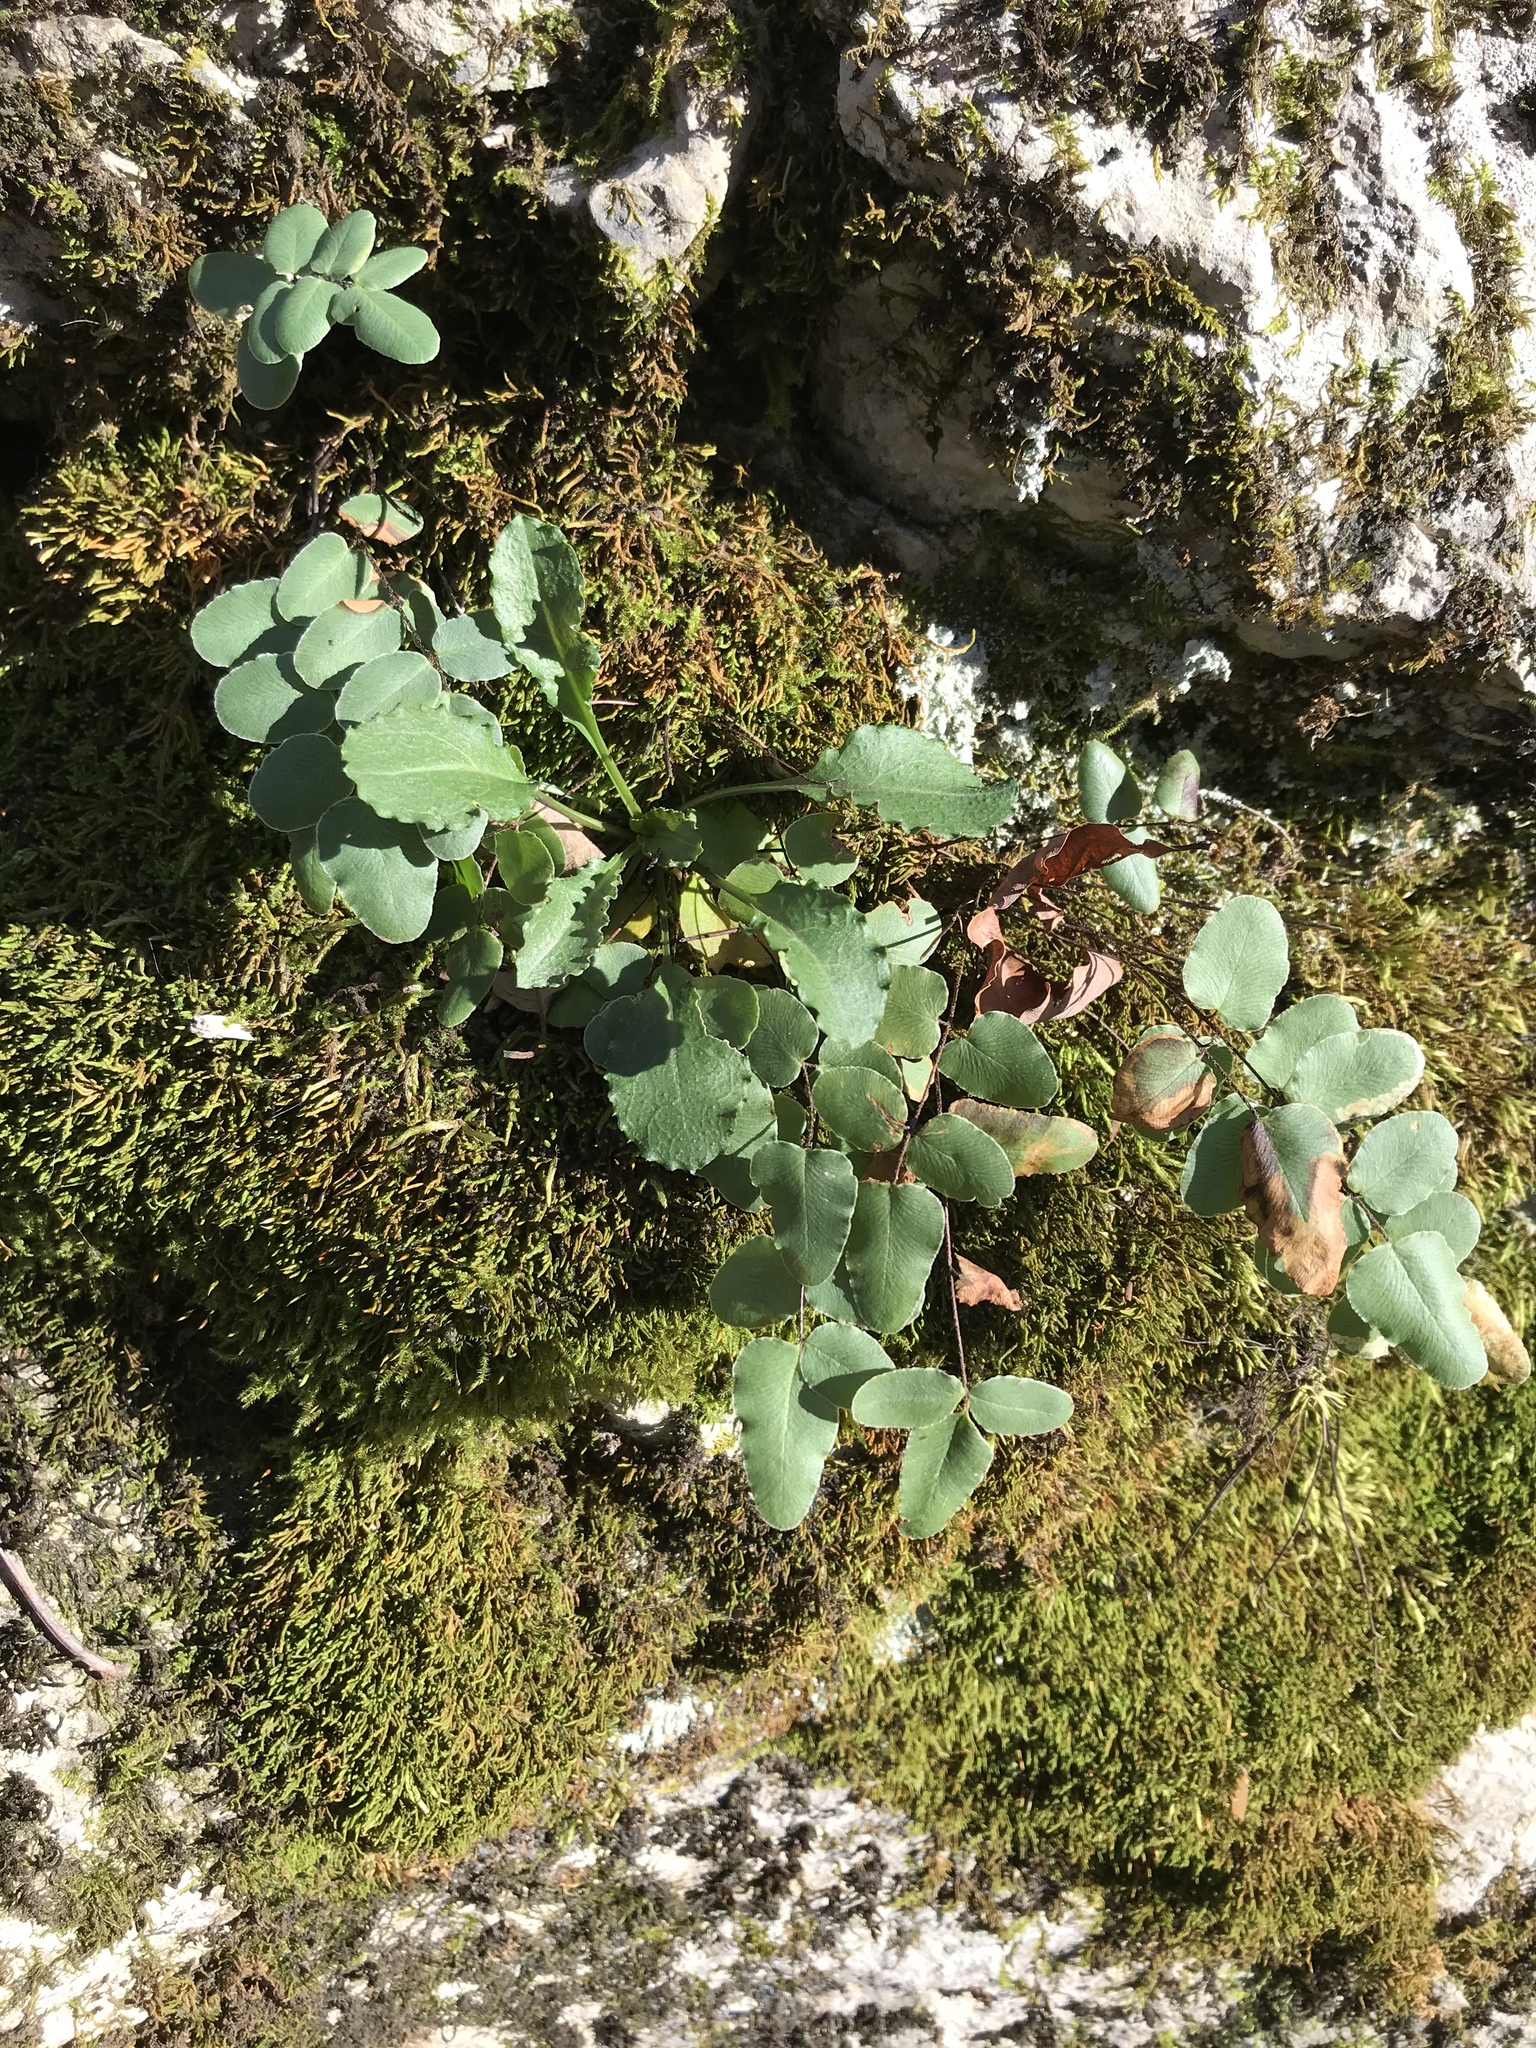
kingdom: Plantae
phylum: Tracheophyta
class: Polypodiopsida
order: Polypodiales
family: Pteridaceae
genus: Pellaea
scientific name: Pellaea atropurpurea
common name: Hairy cliffbrake
